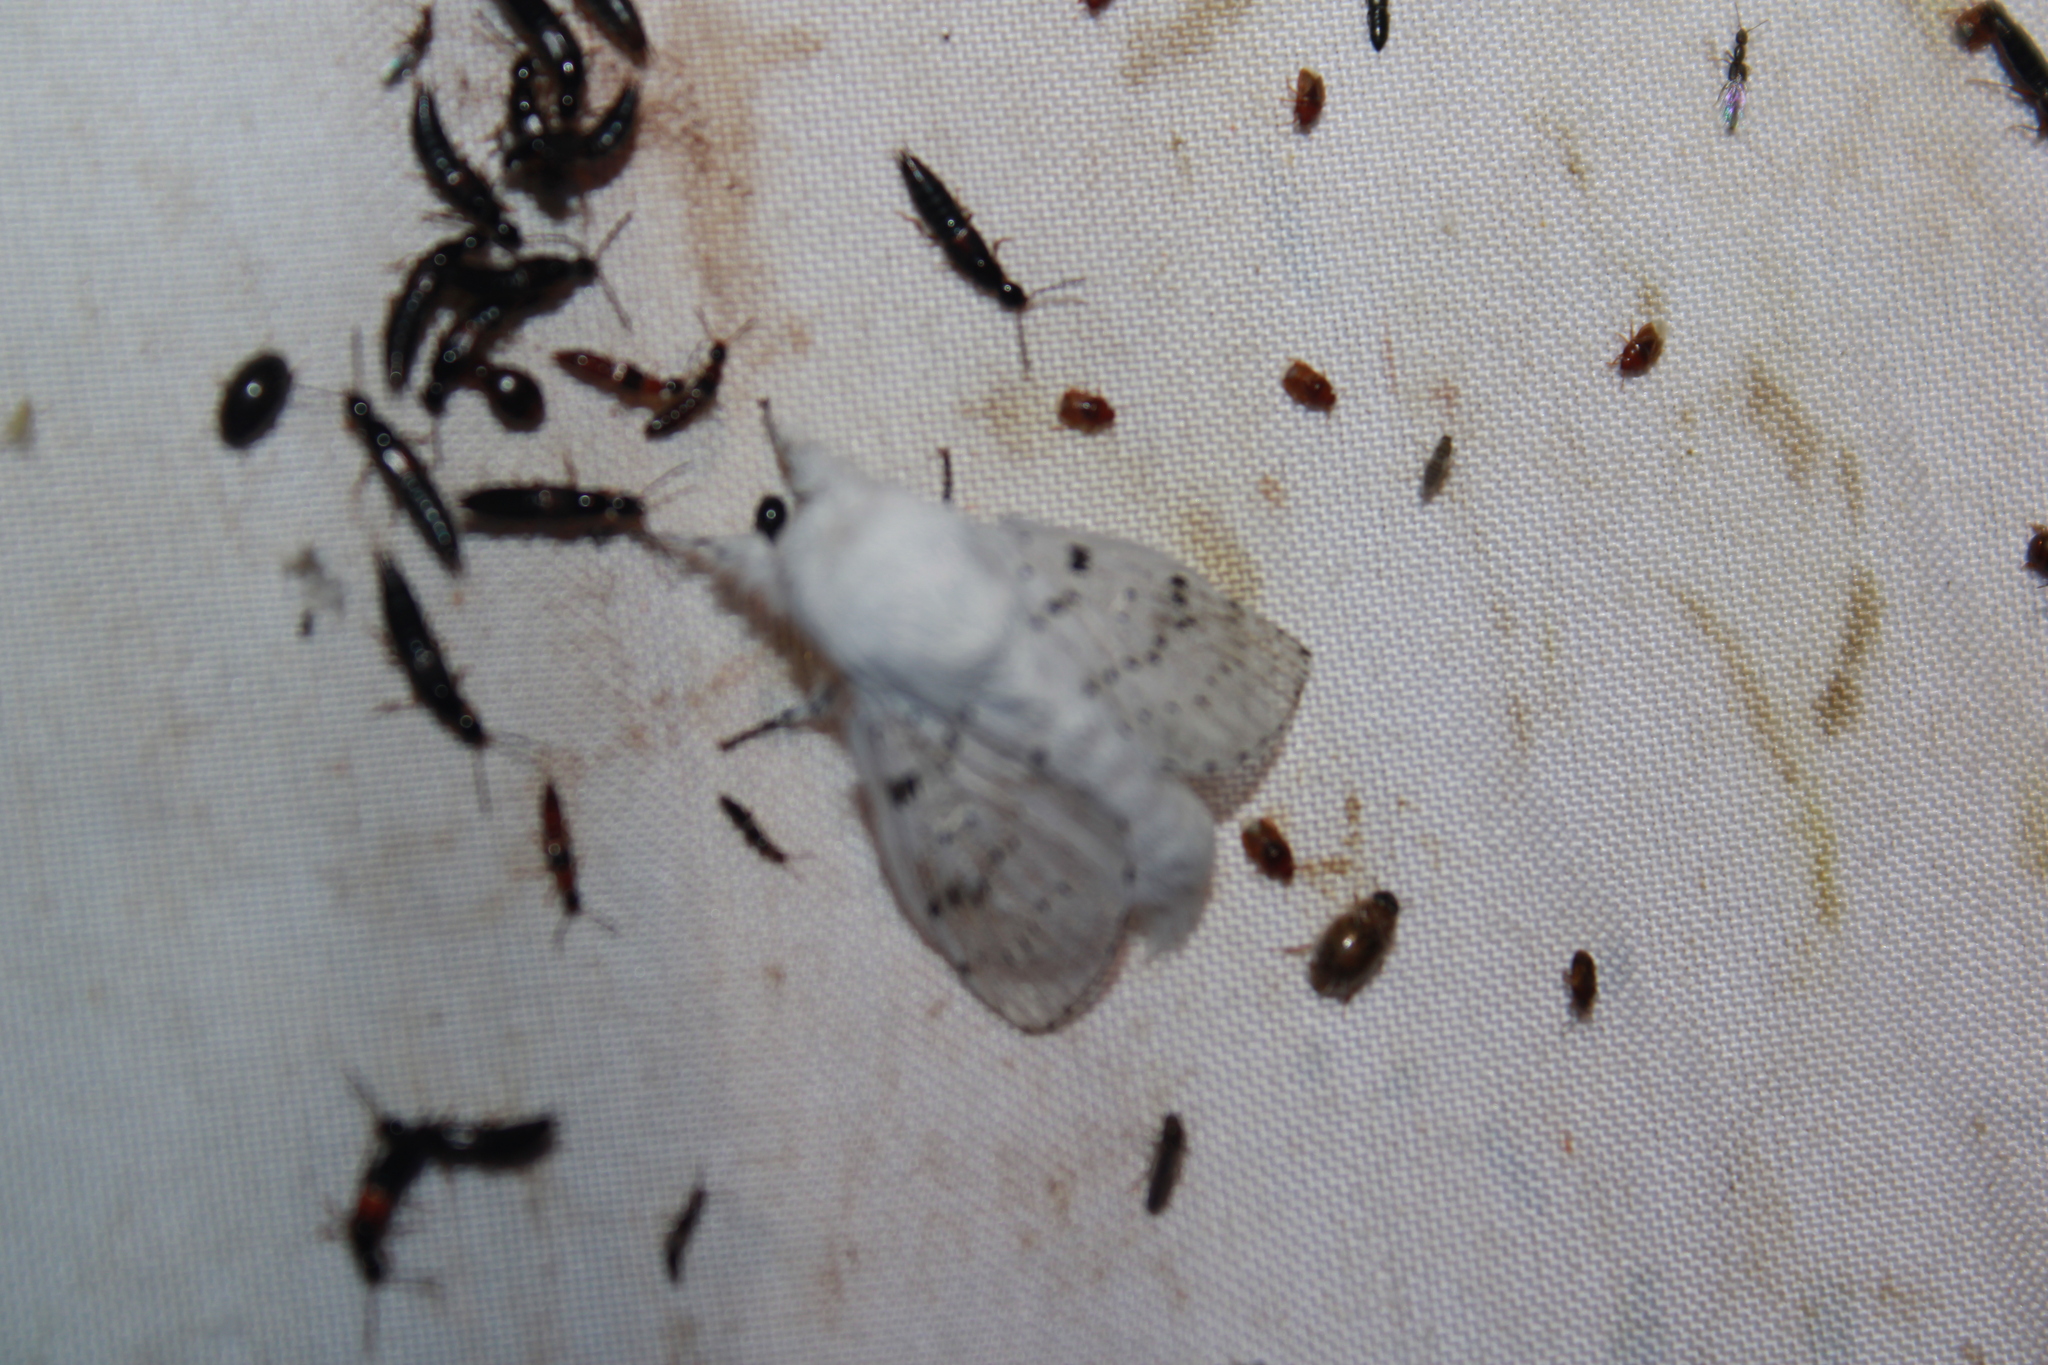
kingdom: Animalia
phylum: Arthropoda
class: Insecta
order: Lepidoptera
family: Lasiocampidae
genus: Artace
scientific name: Artace cribrarius
